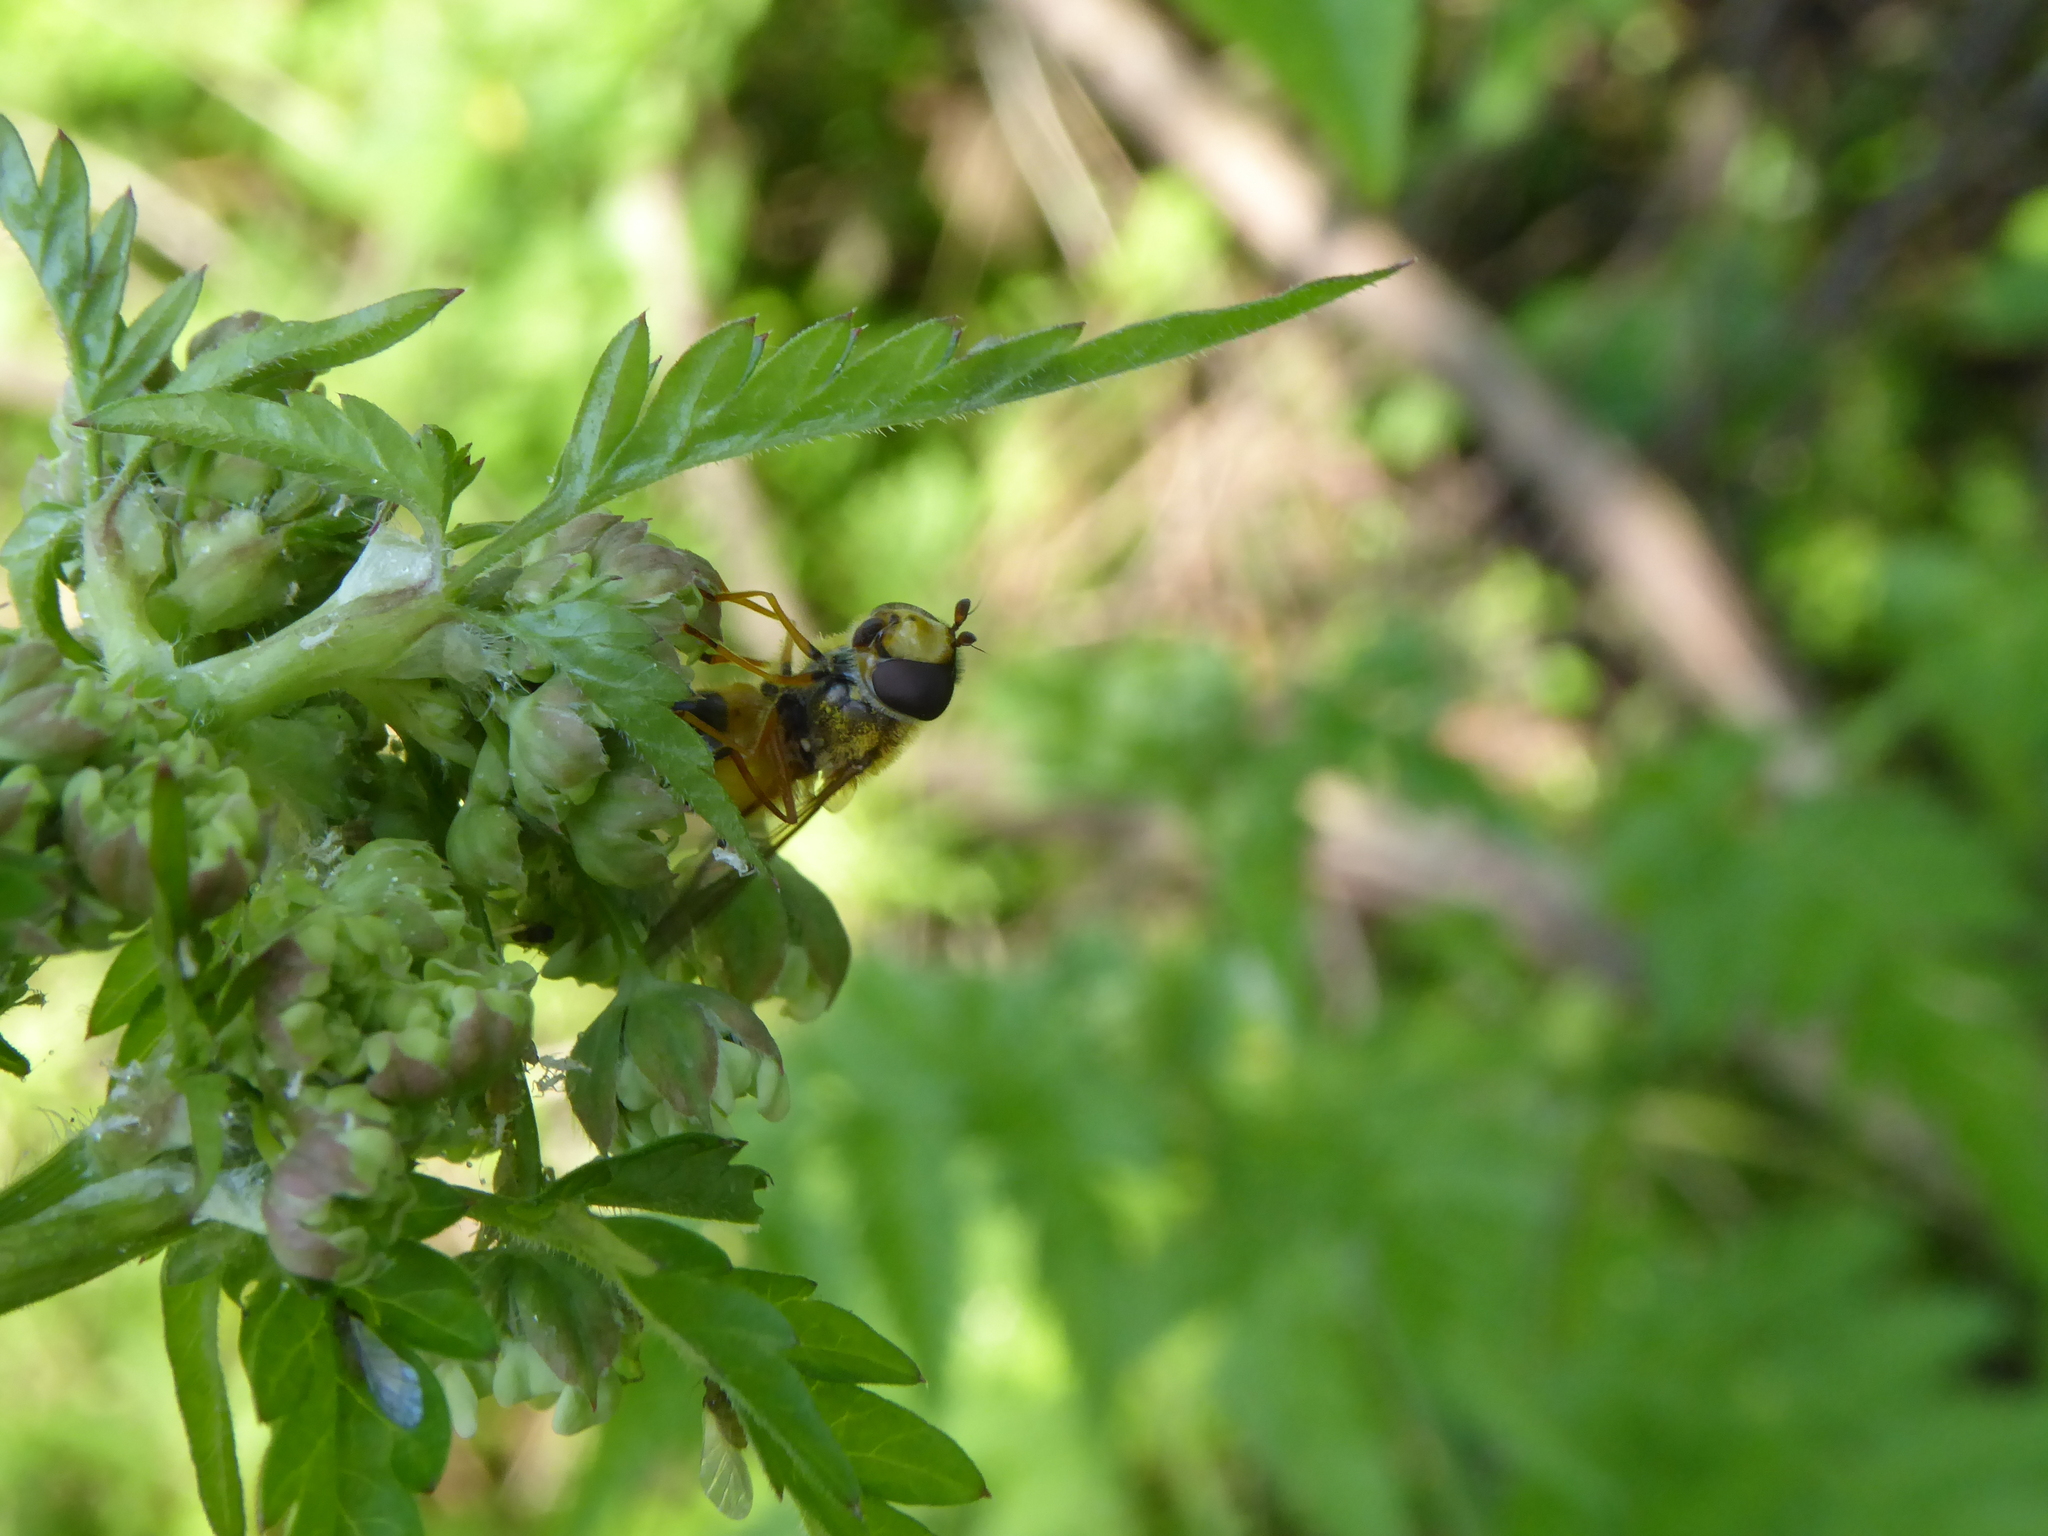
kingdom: Animalia
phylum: Arthropoda
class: Insecta
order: Diptera
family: Syrphidae
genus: Epistrophe
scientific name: Epistrophe eligans
